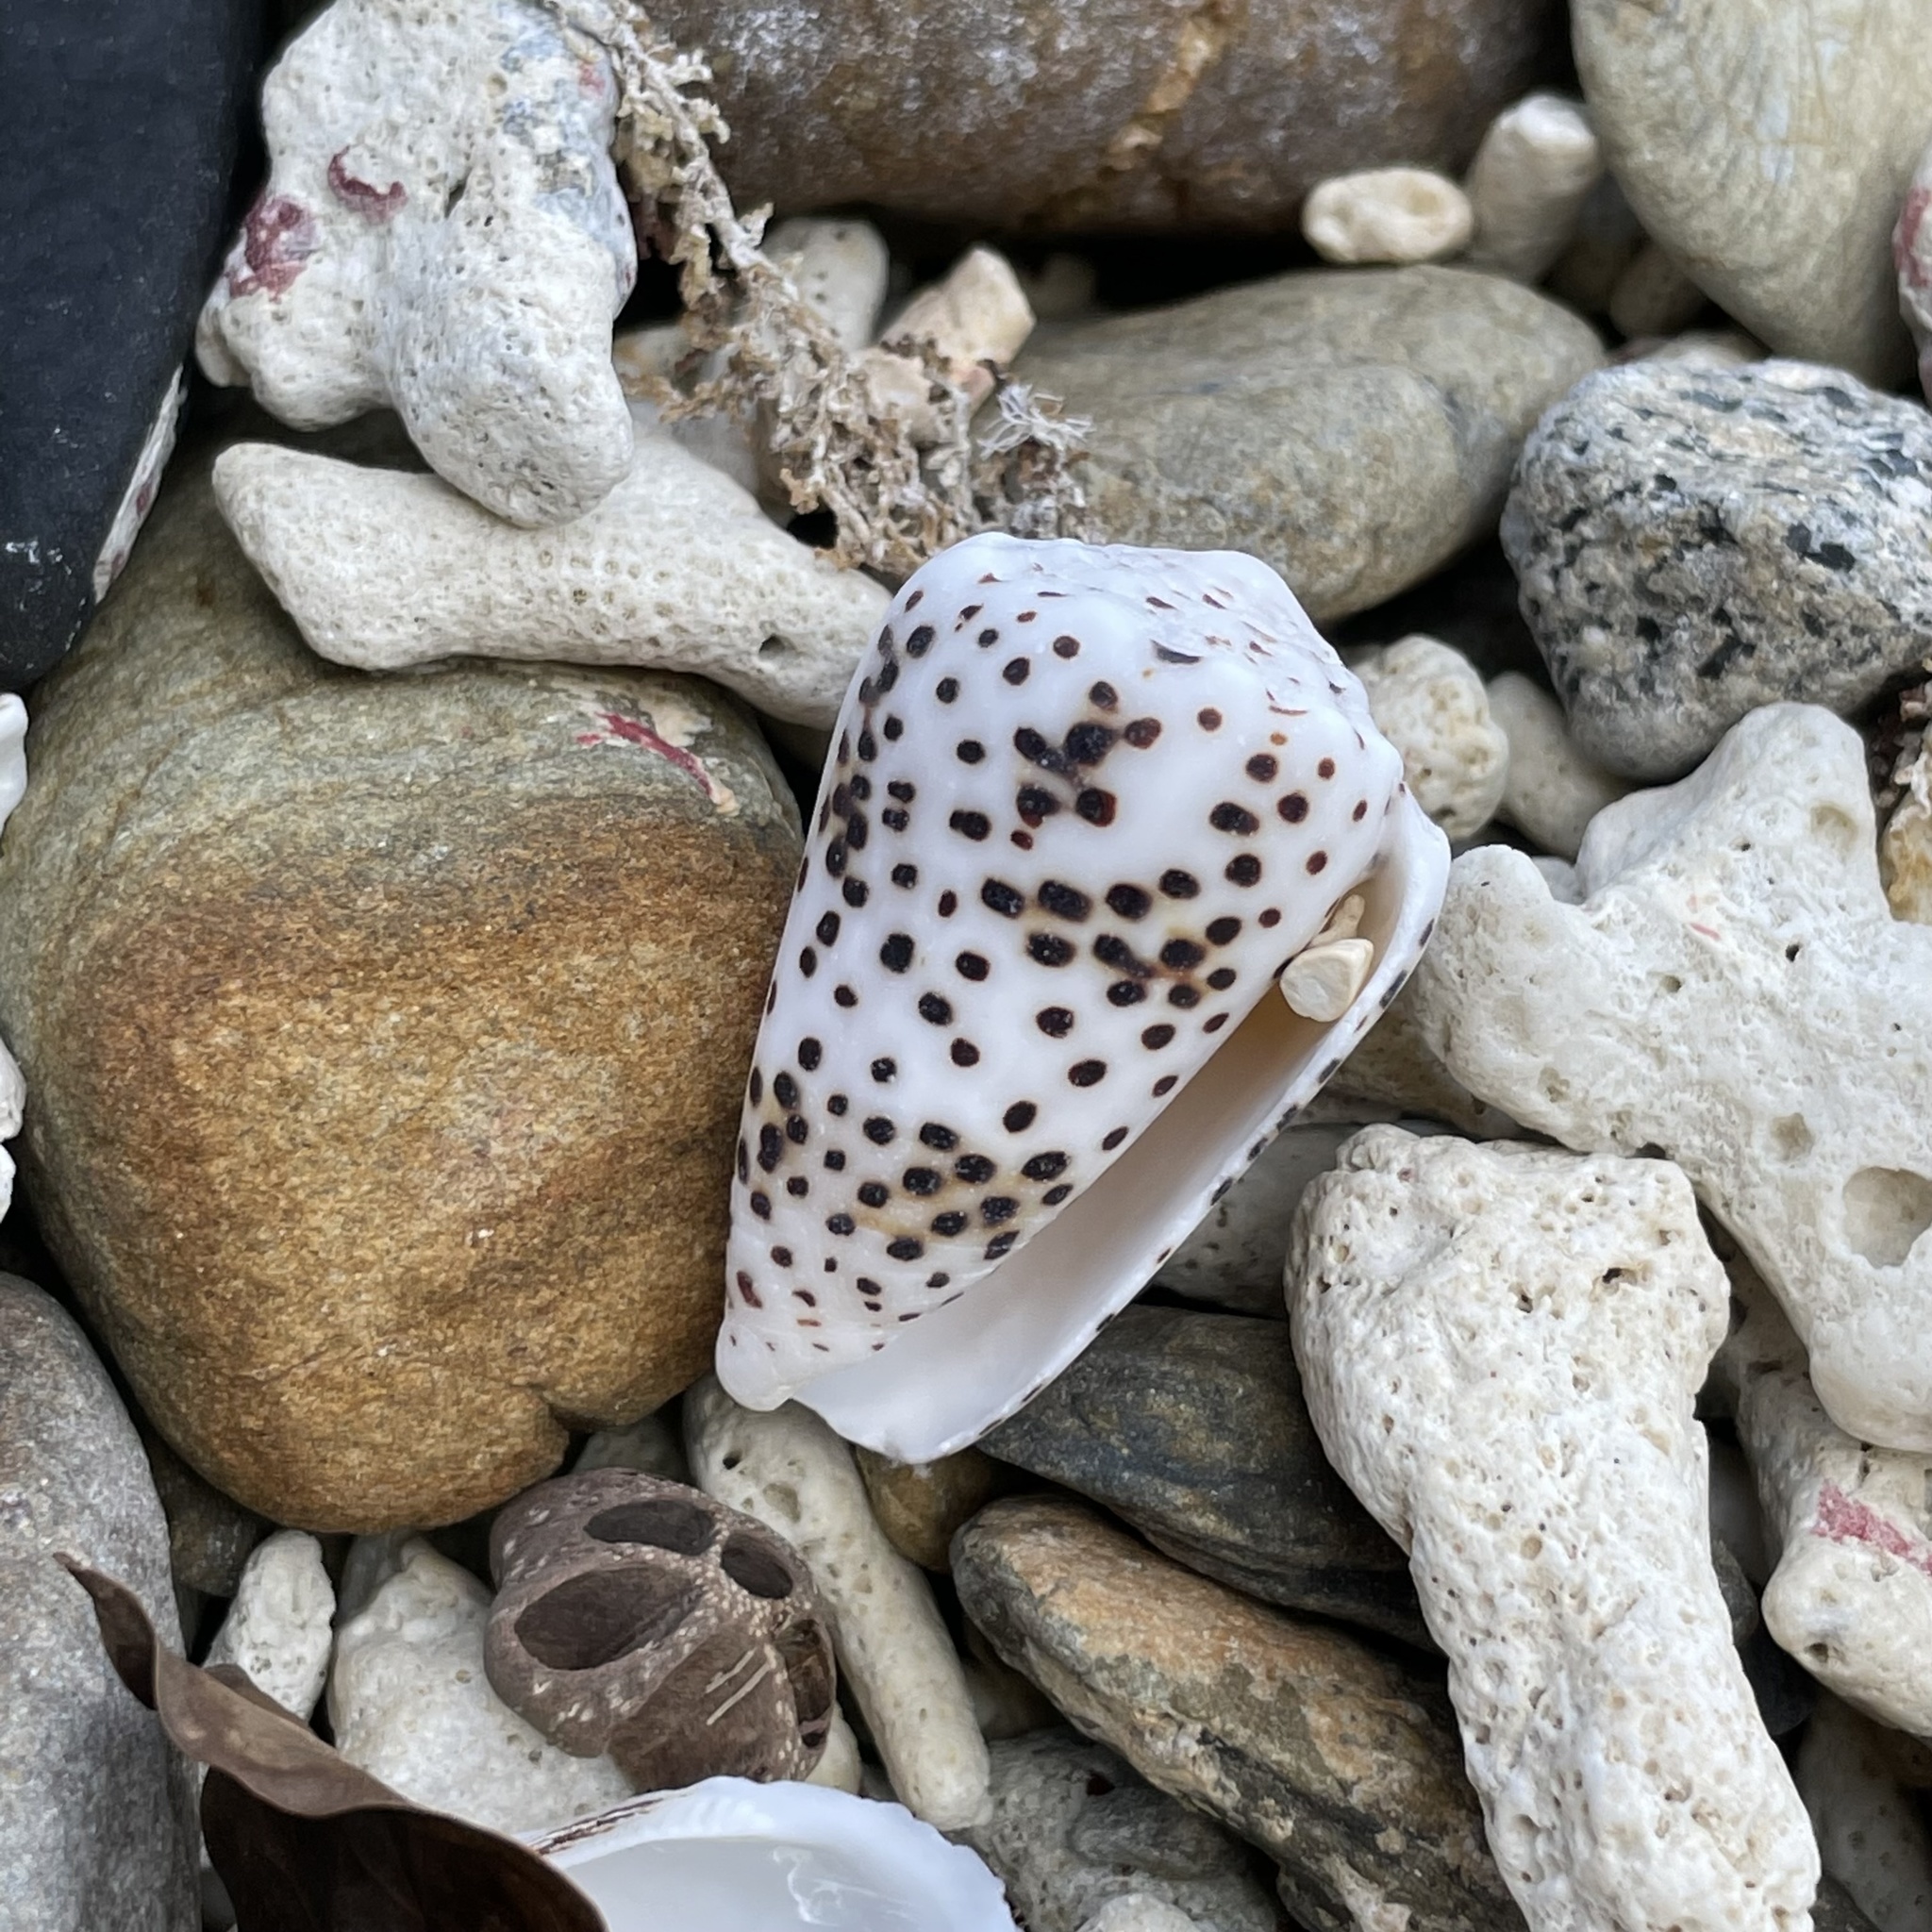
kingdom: Animalia
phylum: Mollusca
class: Gastropoda
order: Neogastropoda
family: Conidae
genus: Conus
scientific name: Conus pulicarius
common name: Flea-bite cone
